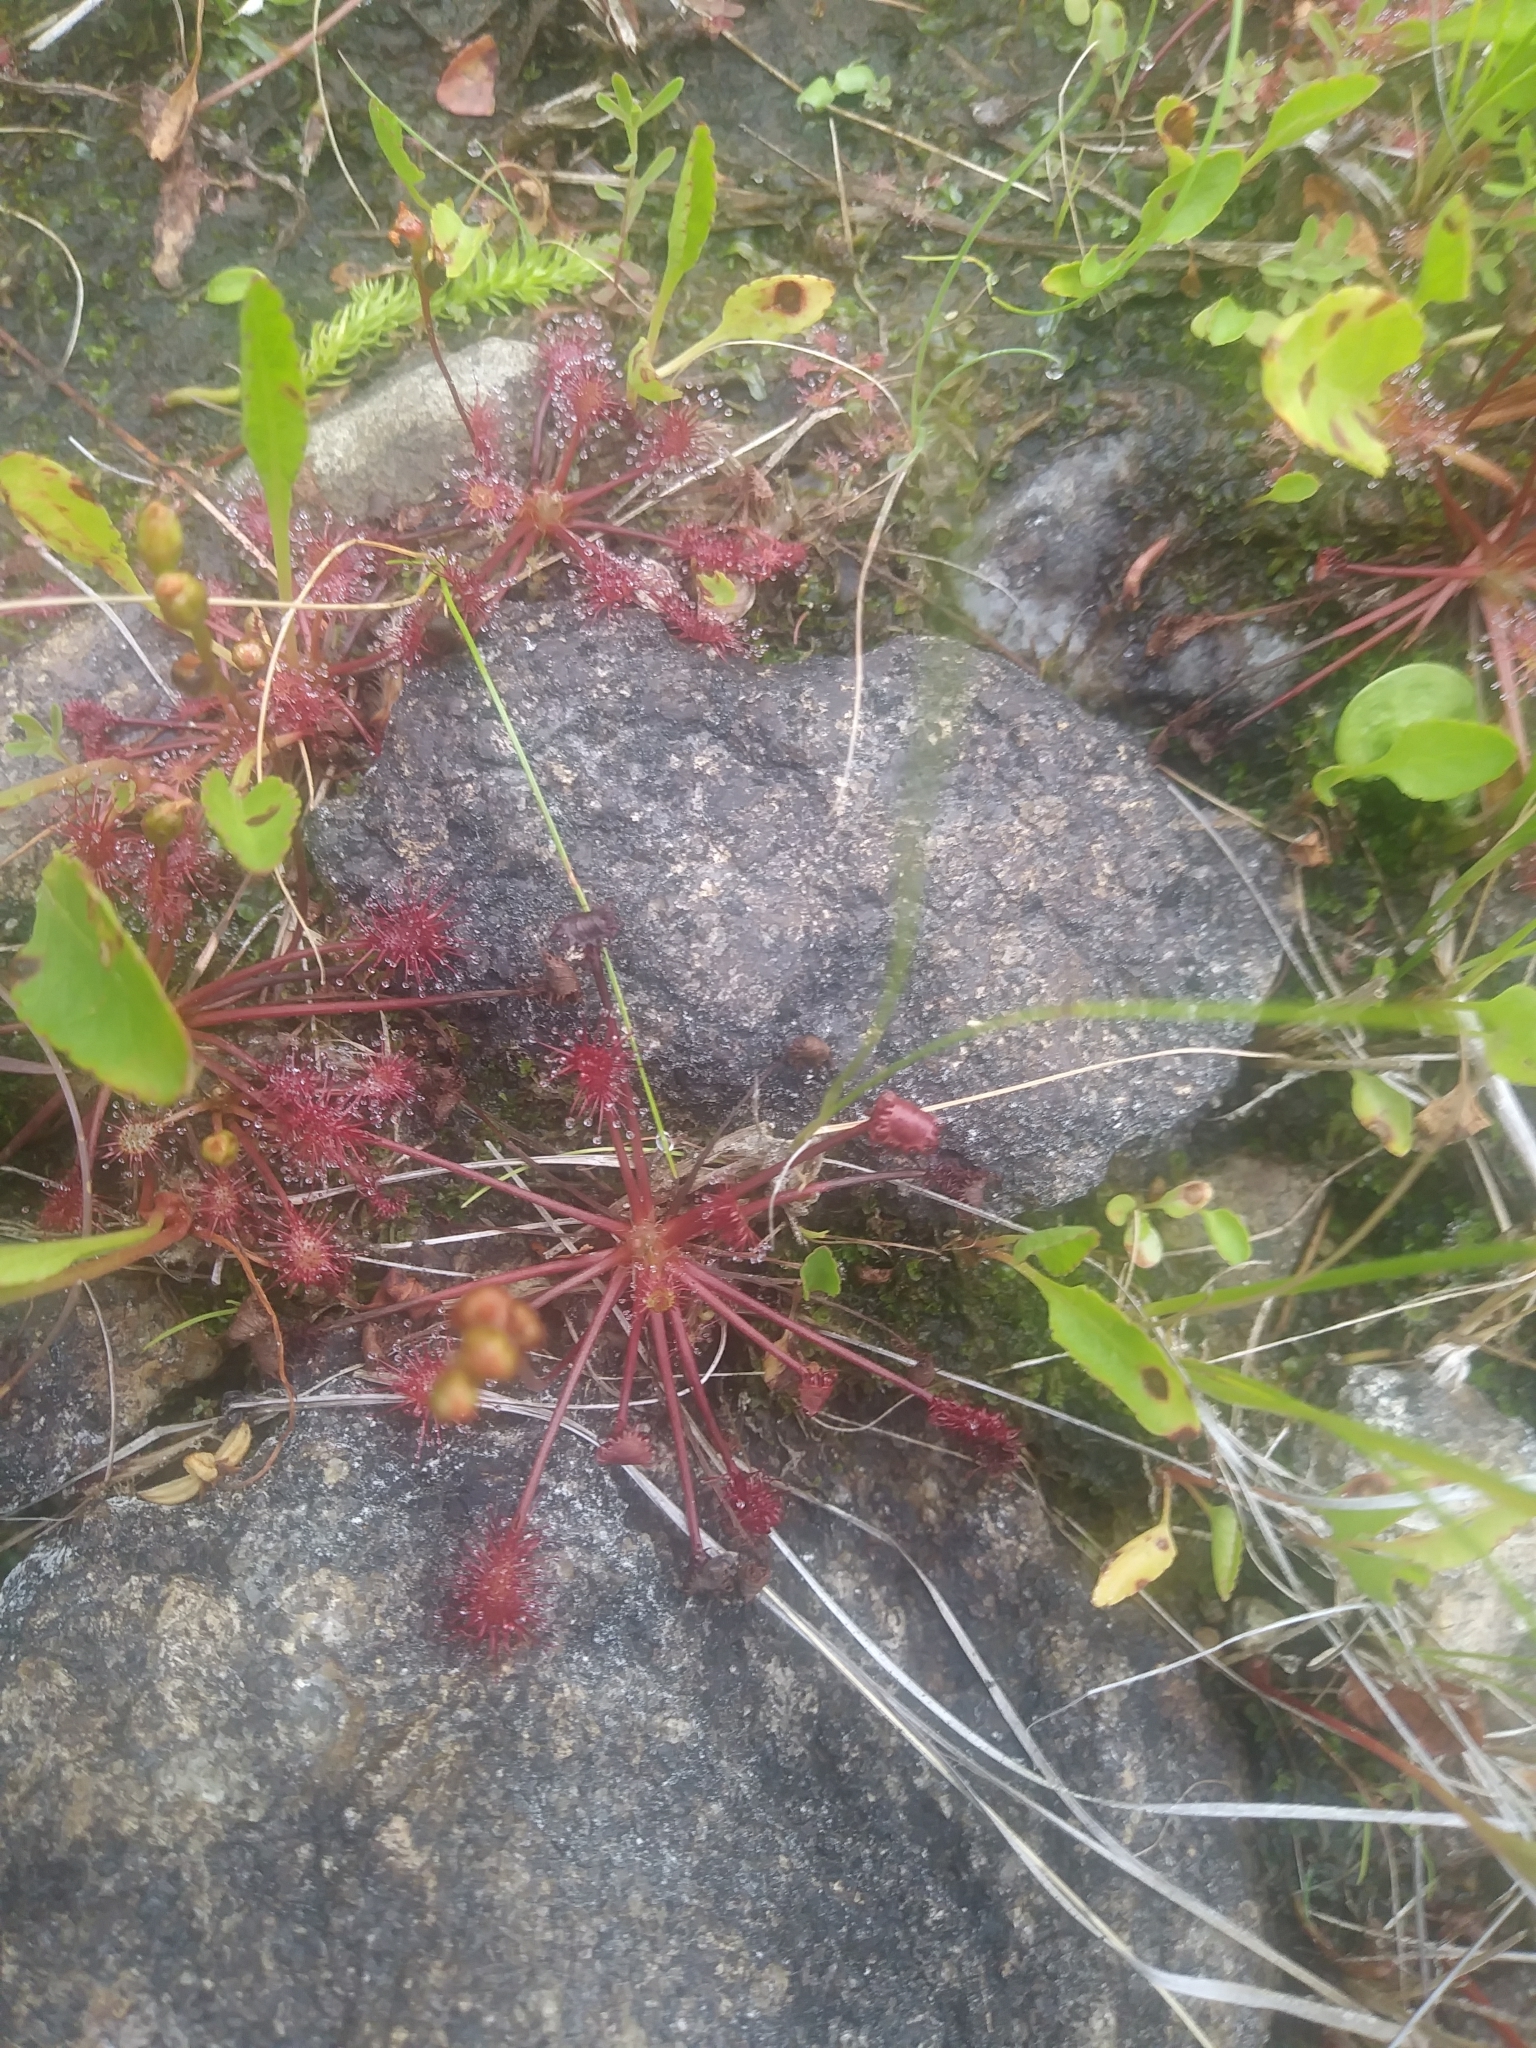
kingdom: Plantae
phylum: Tracheophyta
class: Magnoliopsida
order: Caryophyllales
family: Droseraceae
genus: Drosera
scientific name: Drosera intermedia
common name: Oblong-leaved sundew
